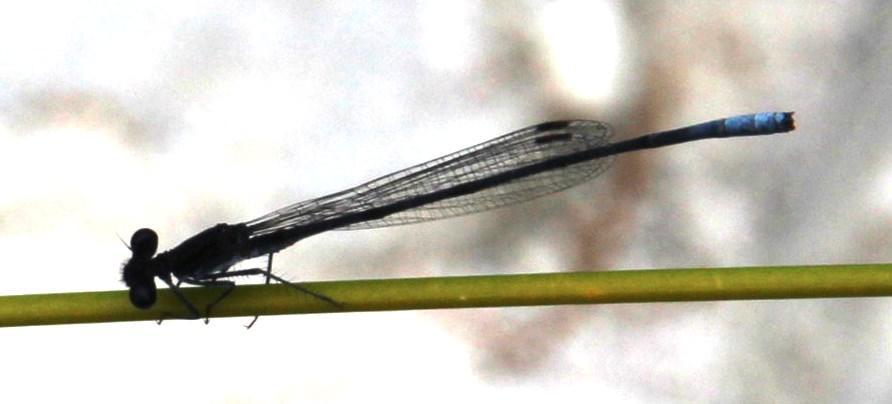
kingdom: Animalia
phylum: Arthropoda
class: Insecta
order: Odonata
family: Platycnemididae
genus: Elattoneura
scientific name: Elattoneura frenulata
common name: Sooty threadtail
